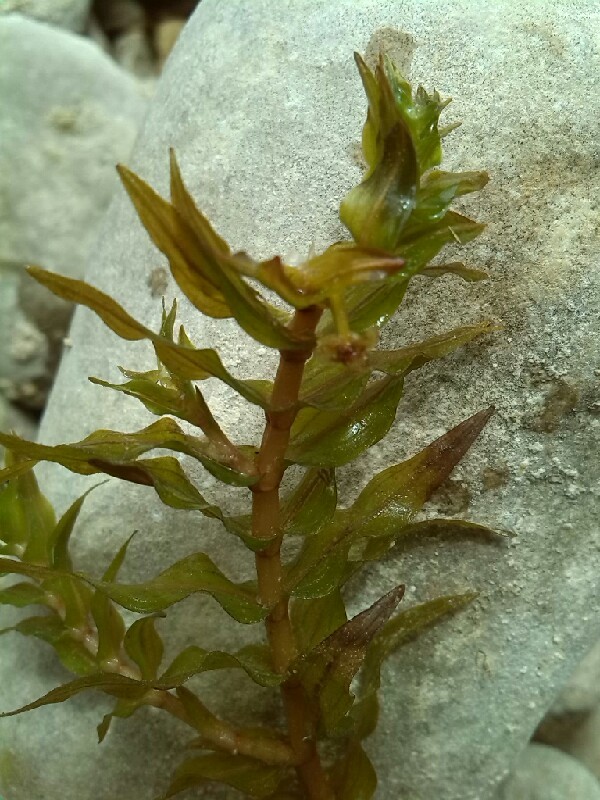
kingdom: Plantae
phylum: Tracheophyta
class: Liliopsida
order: Alismatales
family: Potamogetonaceae
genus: Groenlandia
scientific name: Groenlandia densa
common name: Opposite-leaved pondweed
